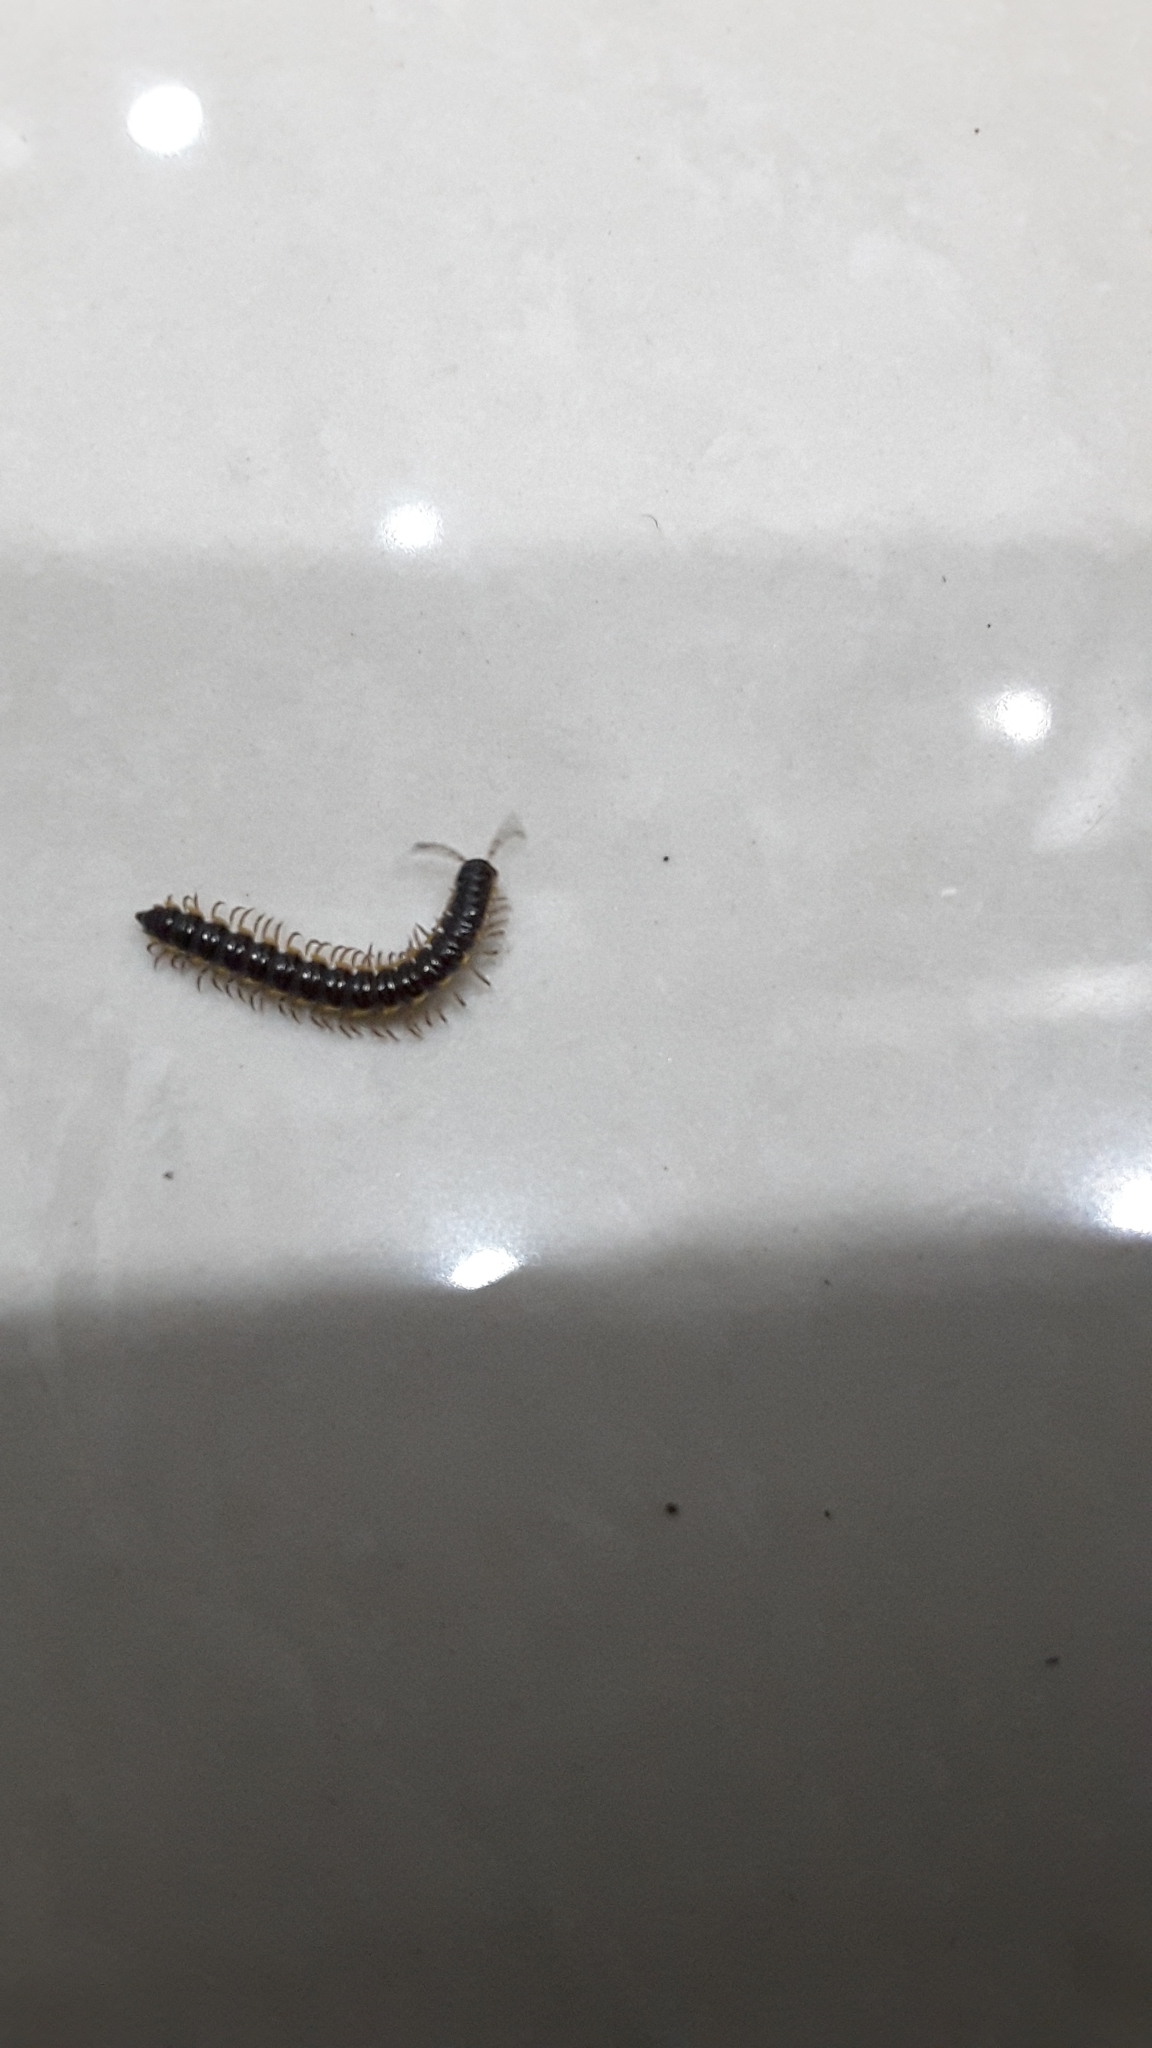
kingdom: Animalia
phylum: Arthropoda
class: Diplopoda
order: Polydesmida
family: Paradoxosomatidae
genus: Orthomorpha
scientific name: Orthomorpha coarctata
